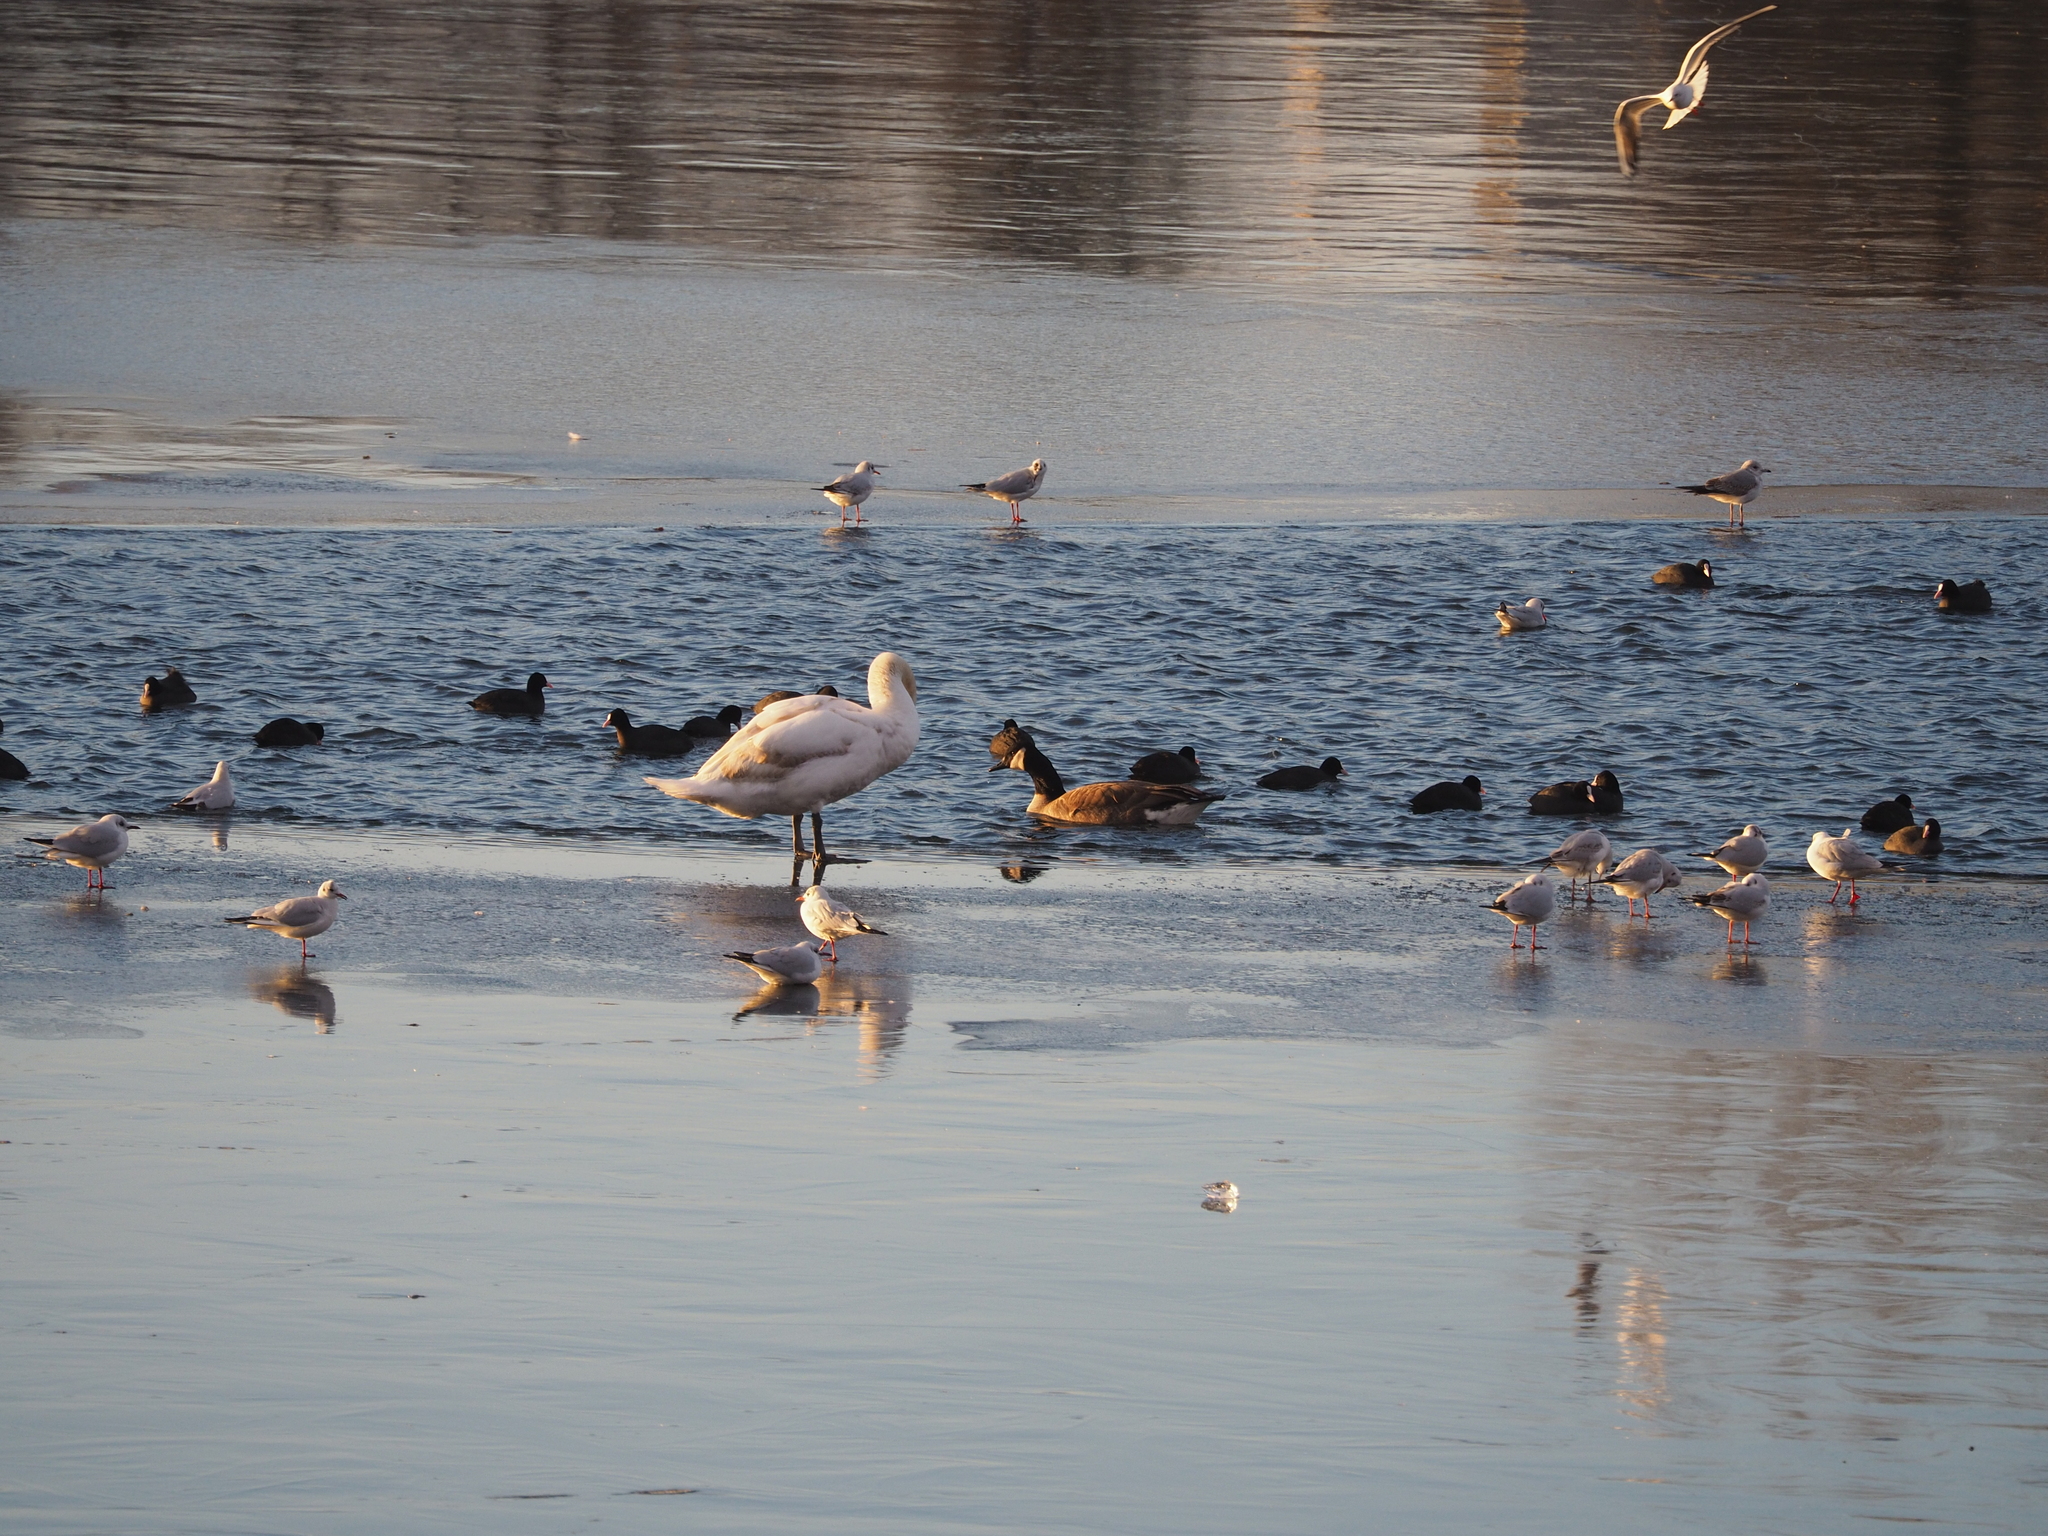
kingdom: Animalia
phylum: Chordata
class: Aves
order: Anseriformes
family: Anatidae
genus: Branta
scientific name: Branta canadensis
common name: Canada goose
